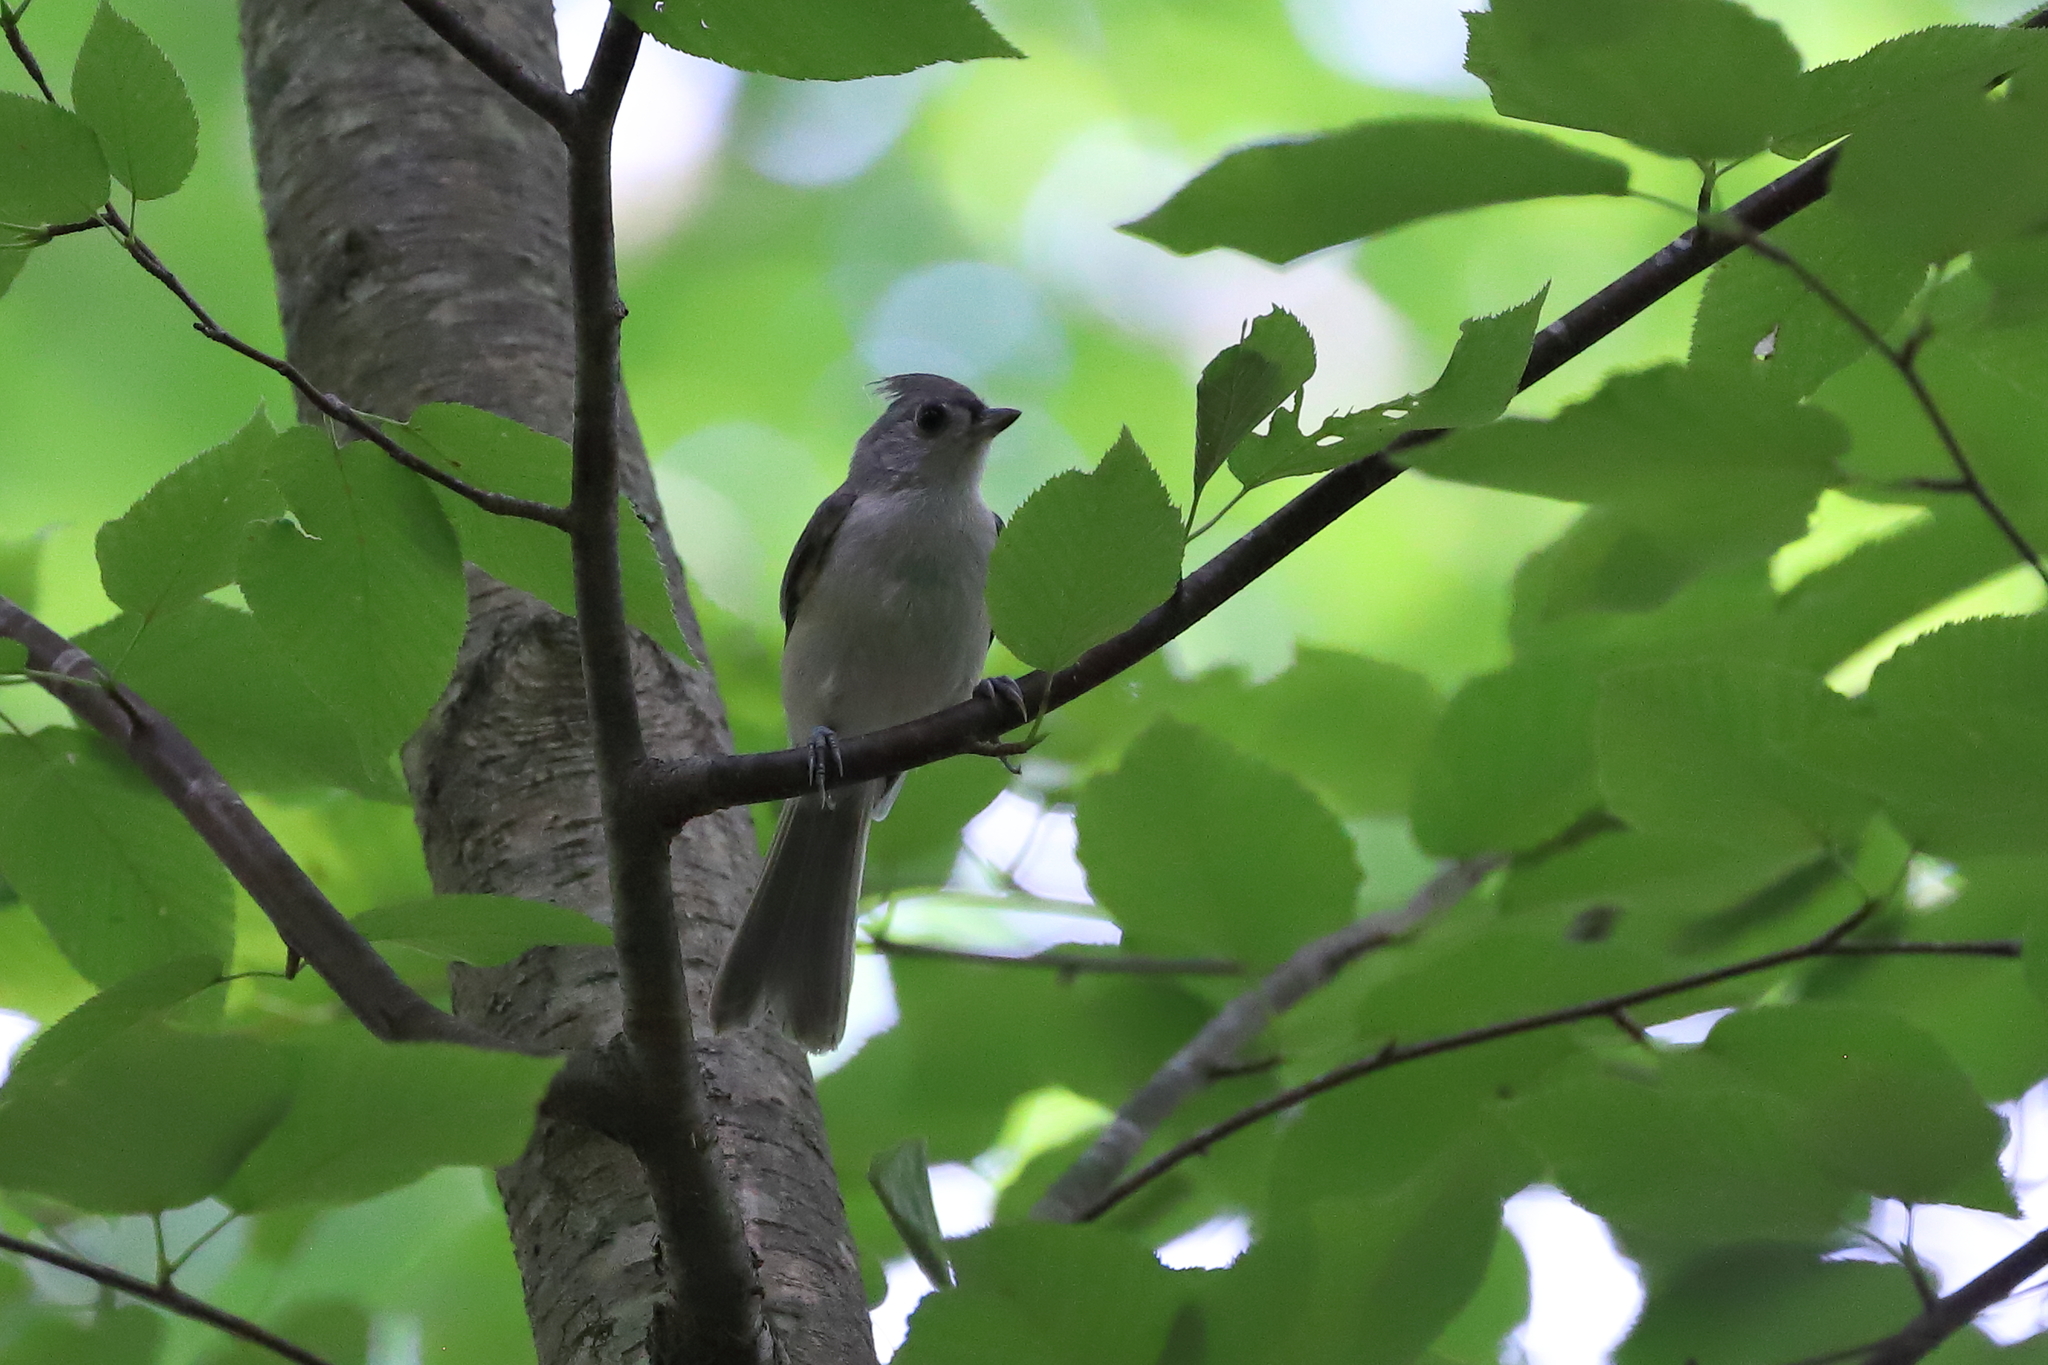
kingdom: Animalia
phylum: Chordata
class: Aves
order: Passeriformes
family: Paridae
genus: Baeolophus
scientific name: Baeolophus bicolor
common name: Tufted titmouse
